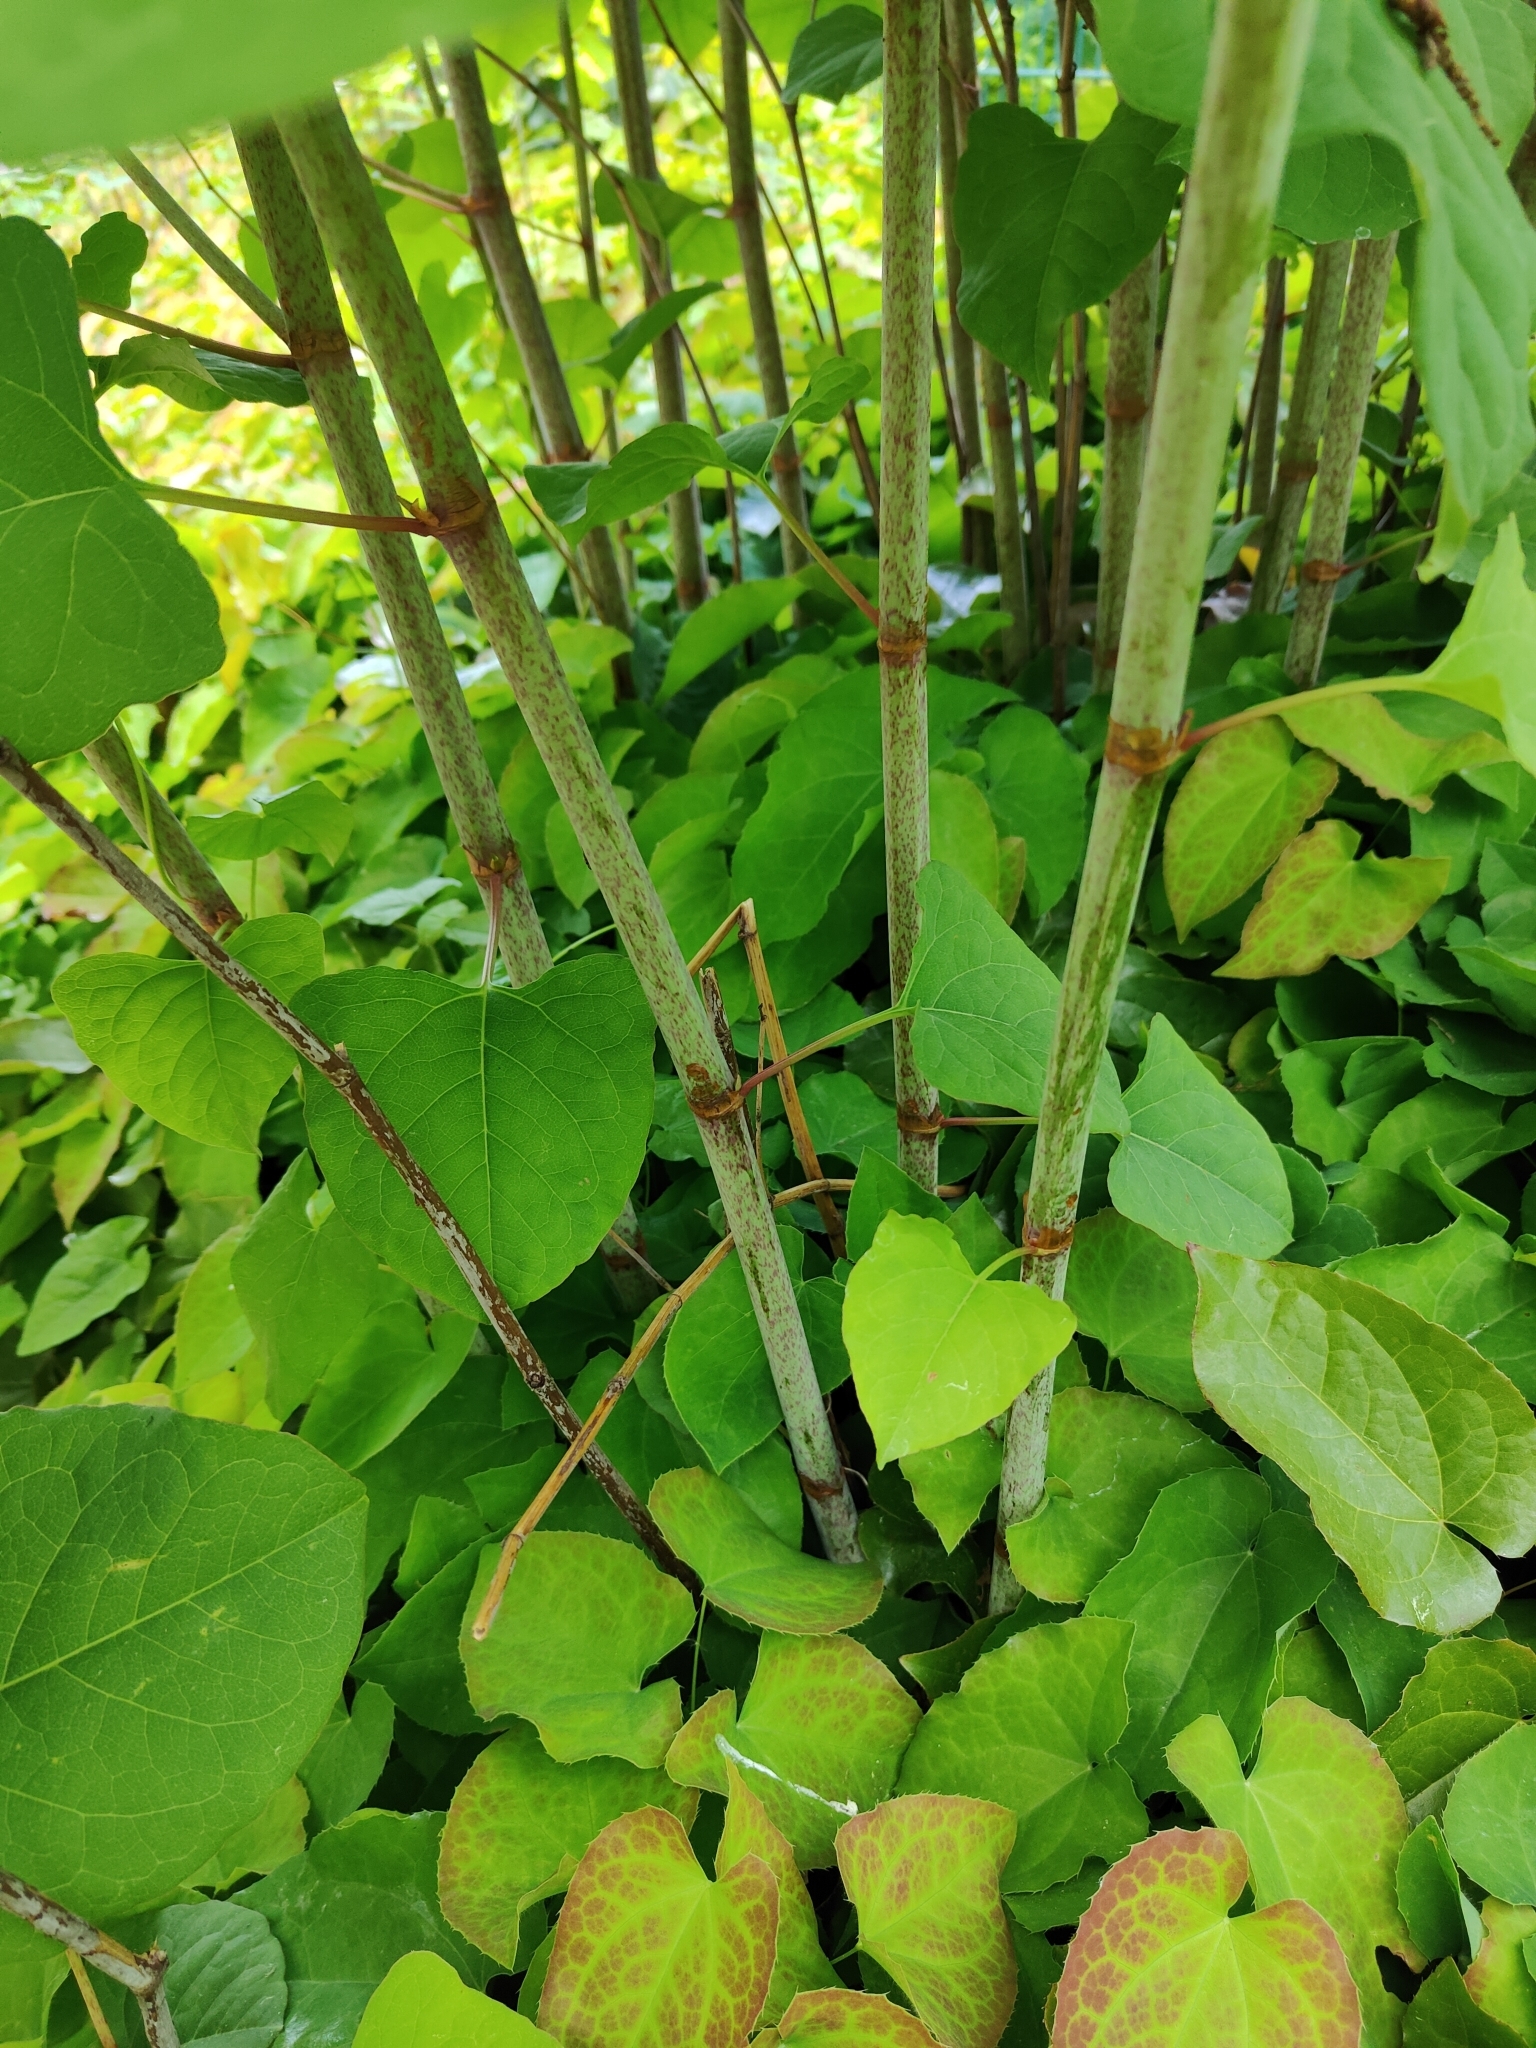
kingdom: Plantae
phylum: Tracheophyta
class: Magnoliopsida
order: Caryophyllales
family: Polygonaceae
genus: Reynoutria
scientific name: Reynoutria bohemica
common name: Bohemian knotweed
